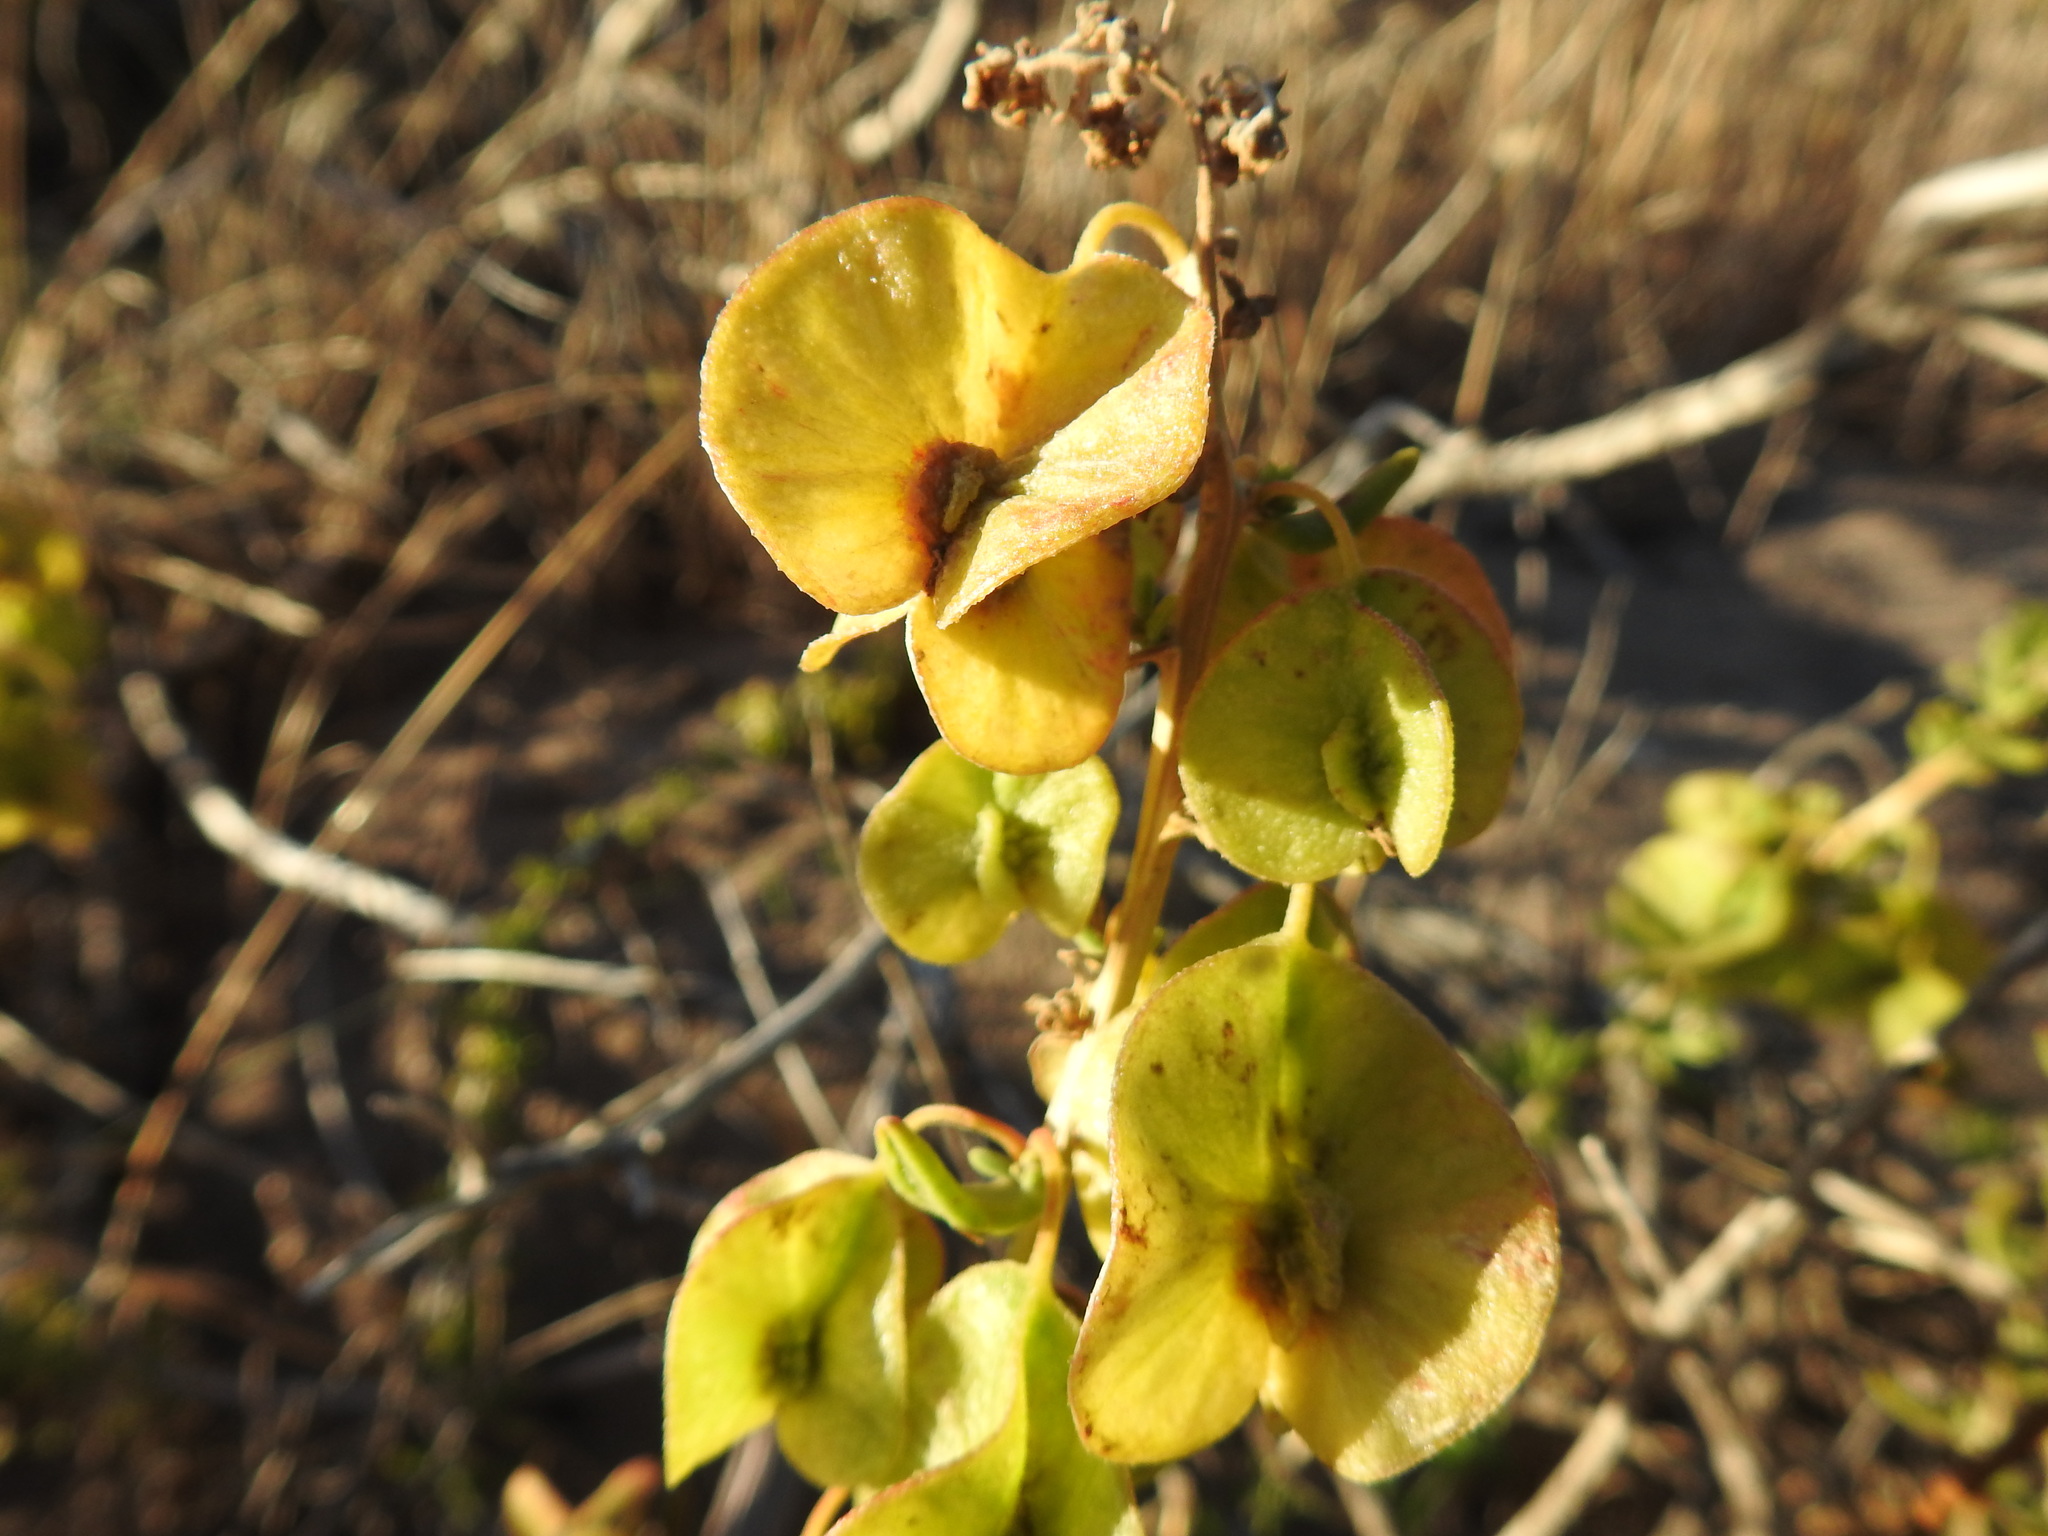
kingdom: Plantae
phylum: Tracheophyta
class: Magnoliopsida
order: Zygophyllales
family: Zygophyllaceae
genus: Roepera
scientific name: Roepera morgsana
